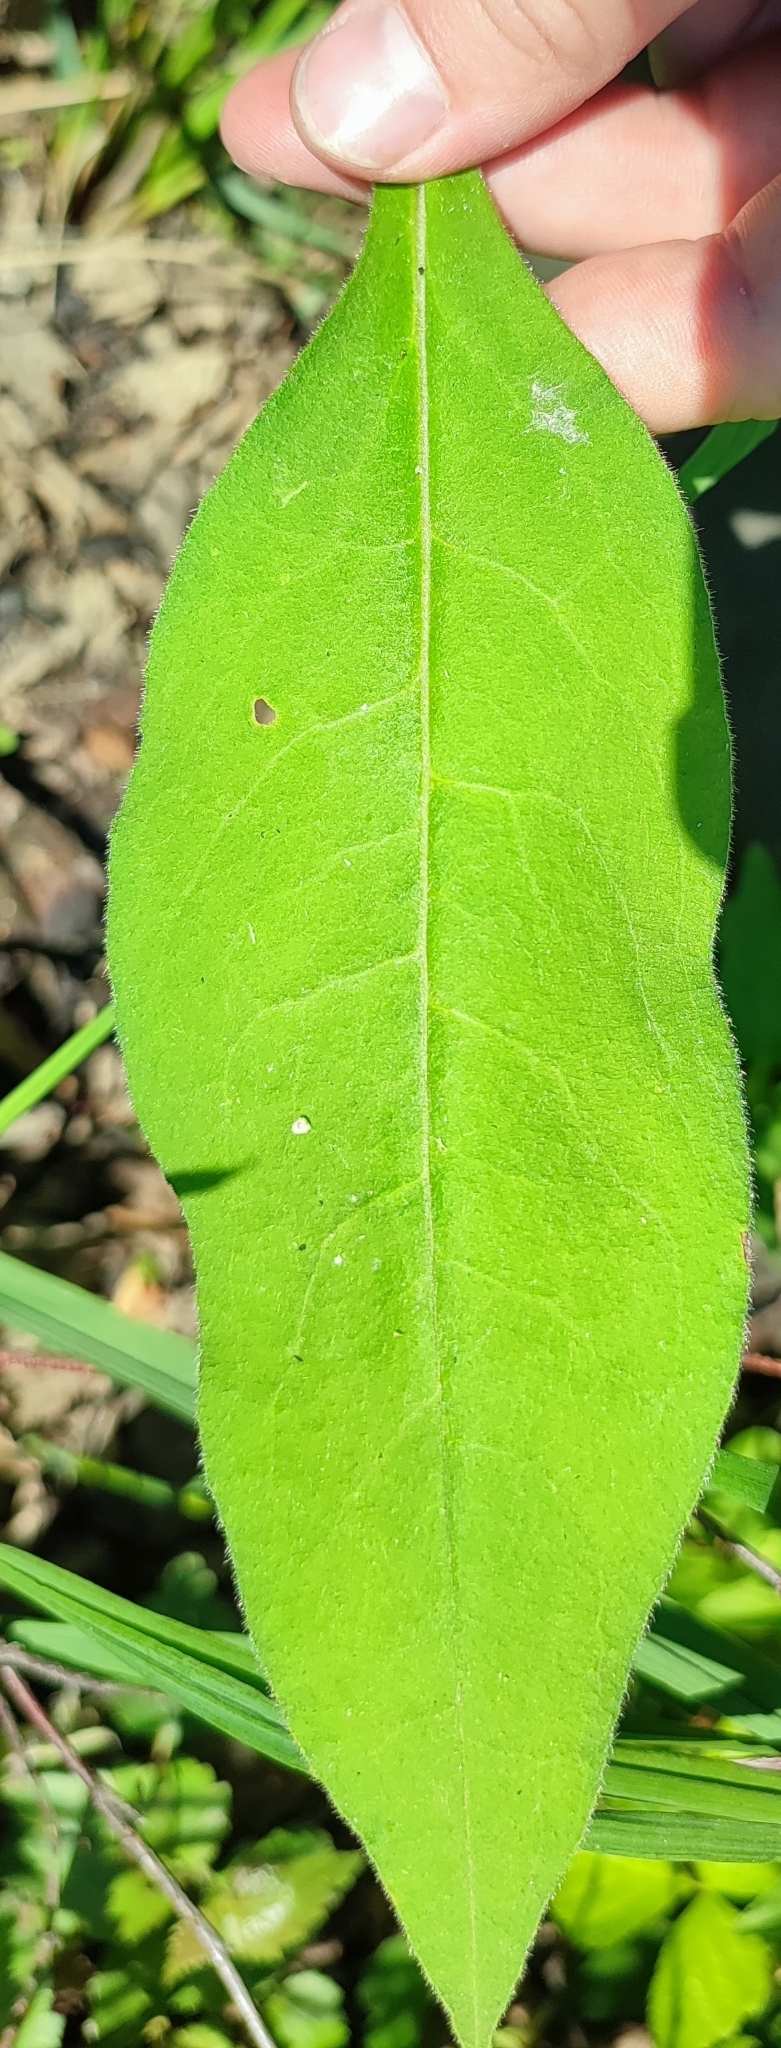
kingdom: Plantae
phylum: Tracheophyta
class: Magnoliopsida
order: Boraginales
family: Boraginaceae
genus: Pulmonaria
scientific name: Pulmonaria mollis
